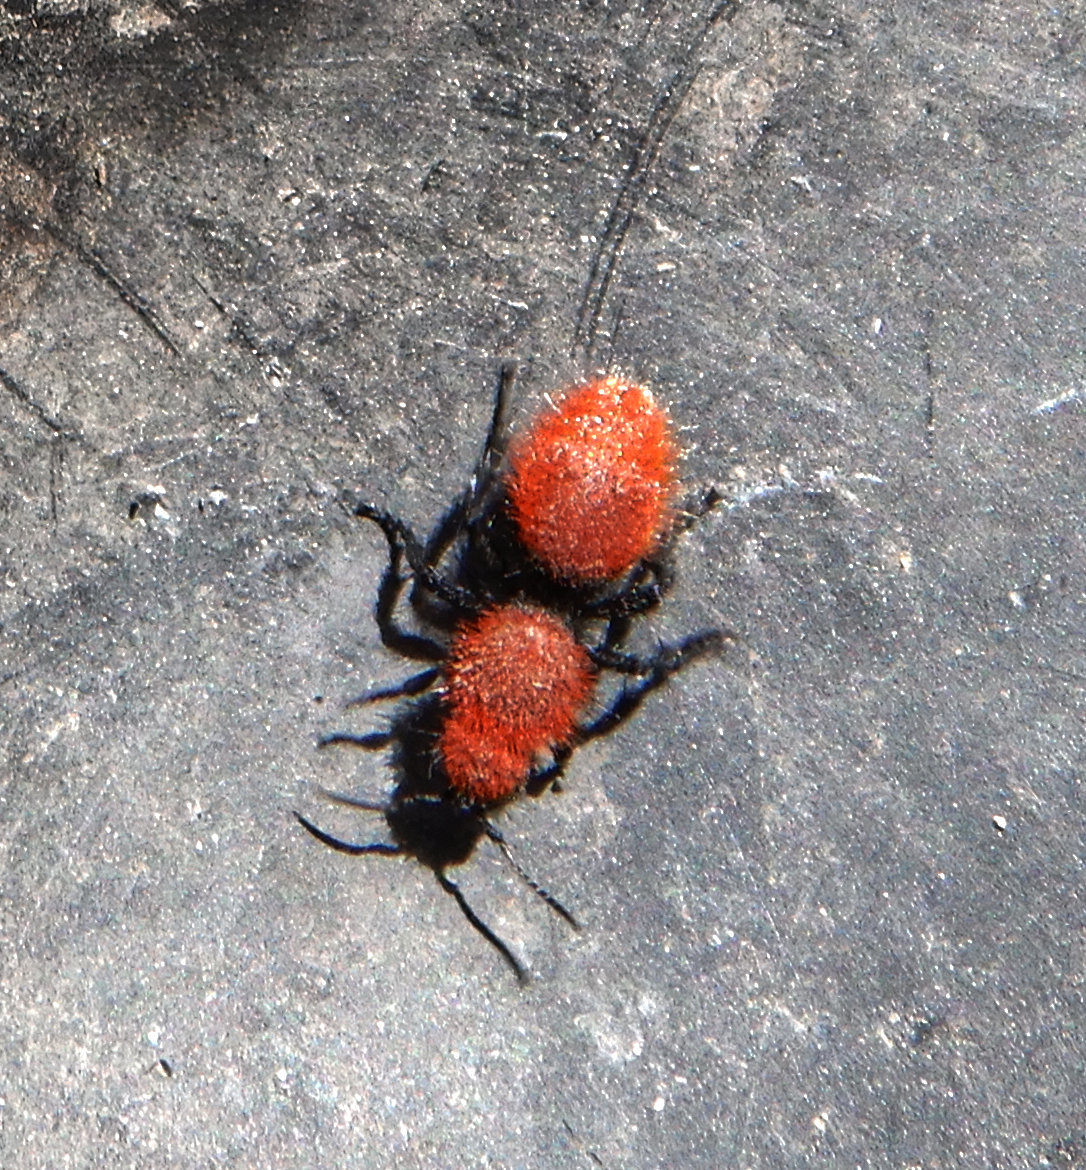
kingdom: Animalia
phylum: Arthropoda
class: Insecta
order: Hymenoptera
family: Mutillidae
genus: Dasymutilla
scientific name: Dasymutilla vestita
